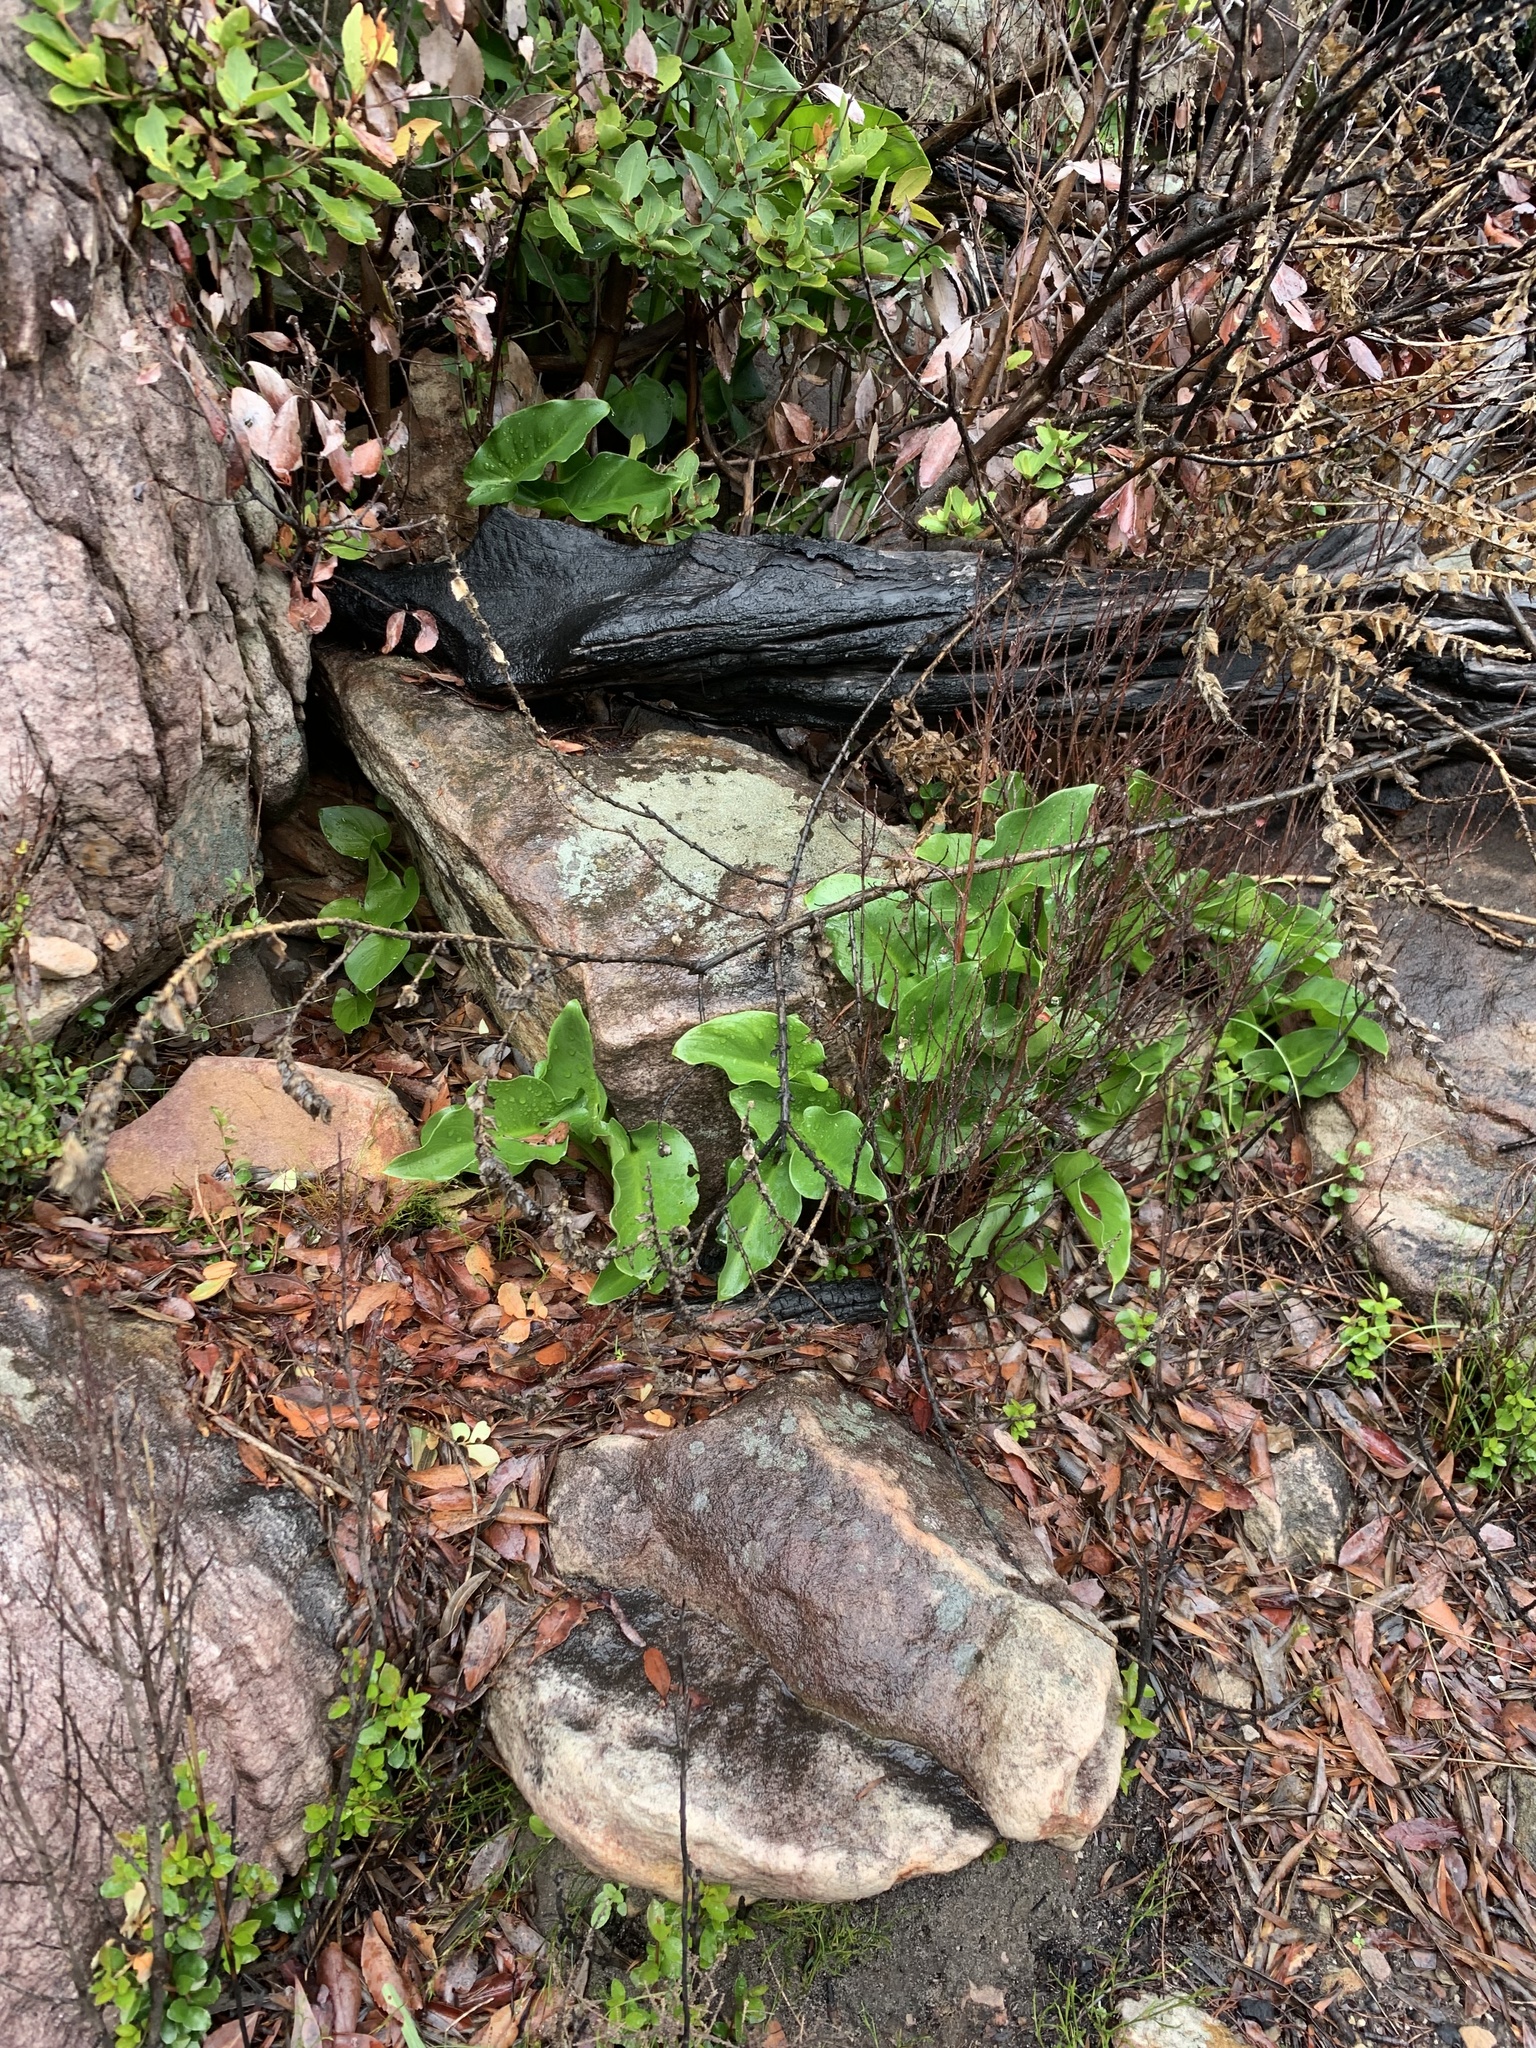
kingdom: Plantae
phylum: Tracheophyta
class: Liliopsida
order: Alismatales
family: Araceae
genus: Zantedeschia
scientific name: Zantedeschia aethiopica
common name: Altar-lily
